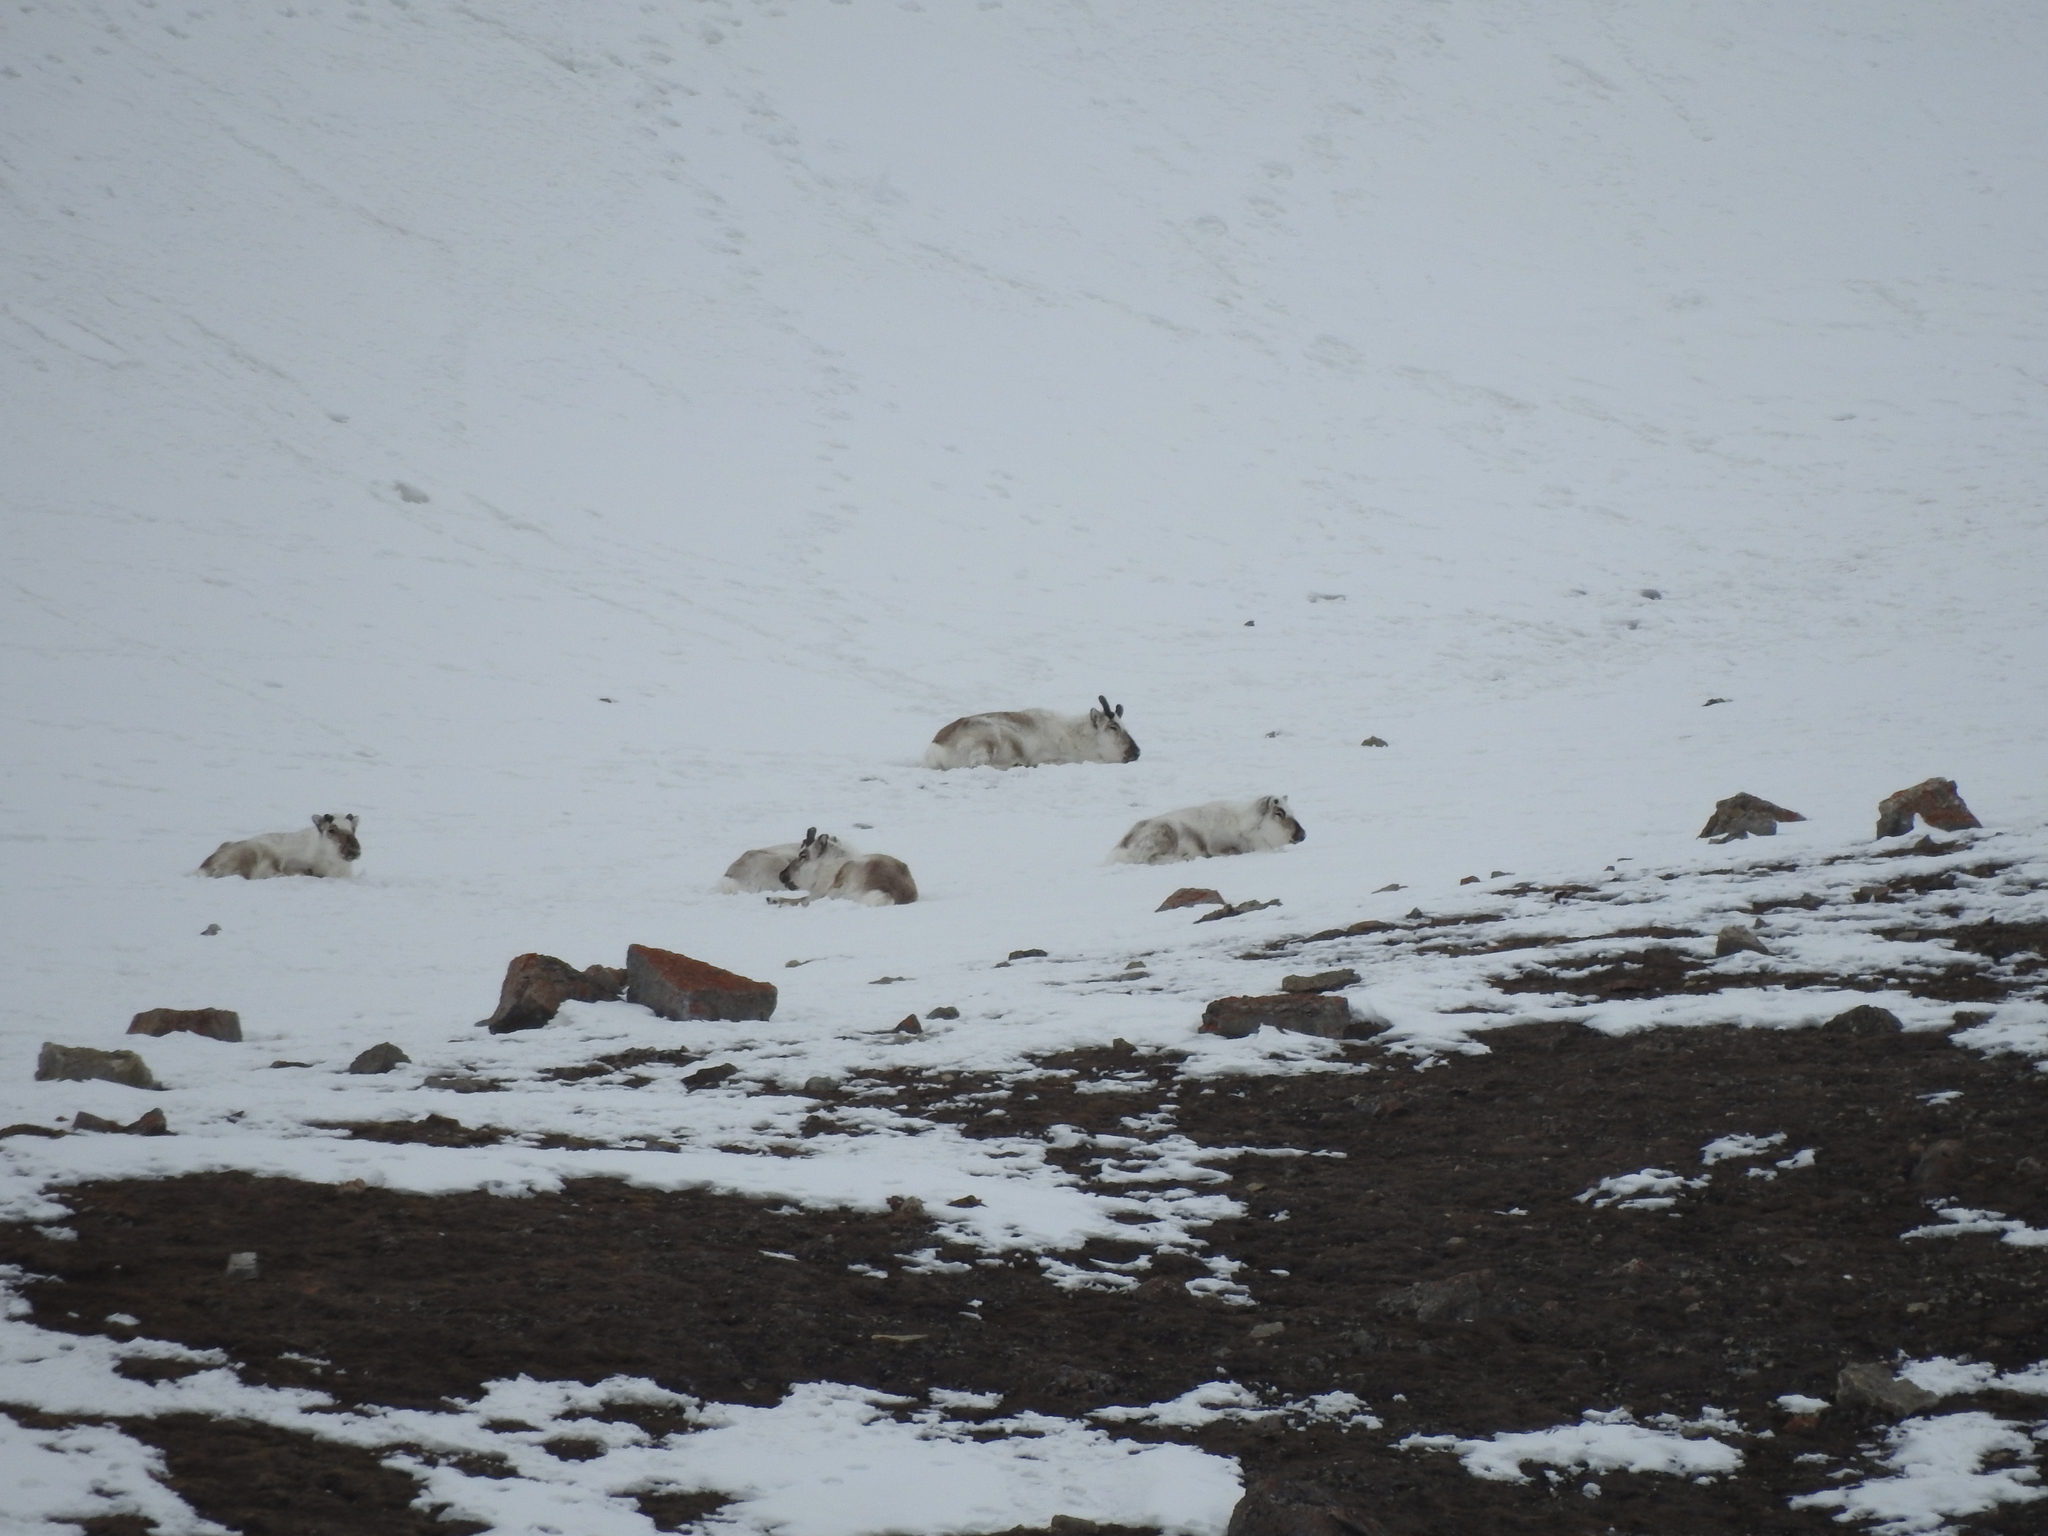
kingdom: Animalia
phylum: Chordata
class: Mammalia
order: Artiodactyla
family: Cervidae
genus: Rangifer
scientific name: Rangifer tarandus
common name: Reindeer
